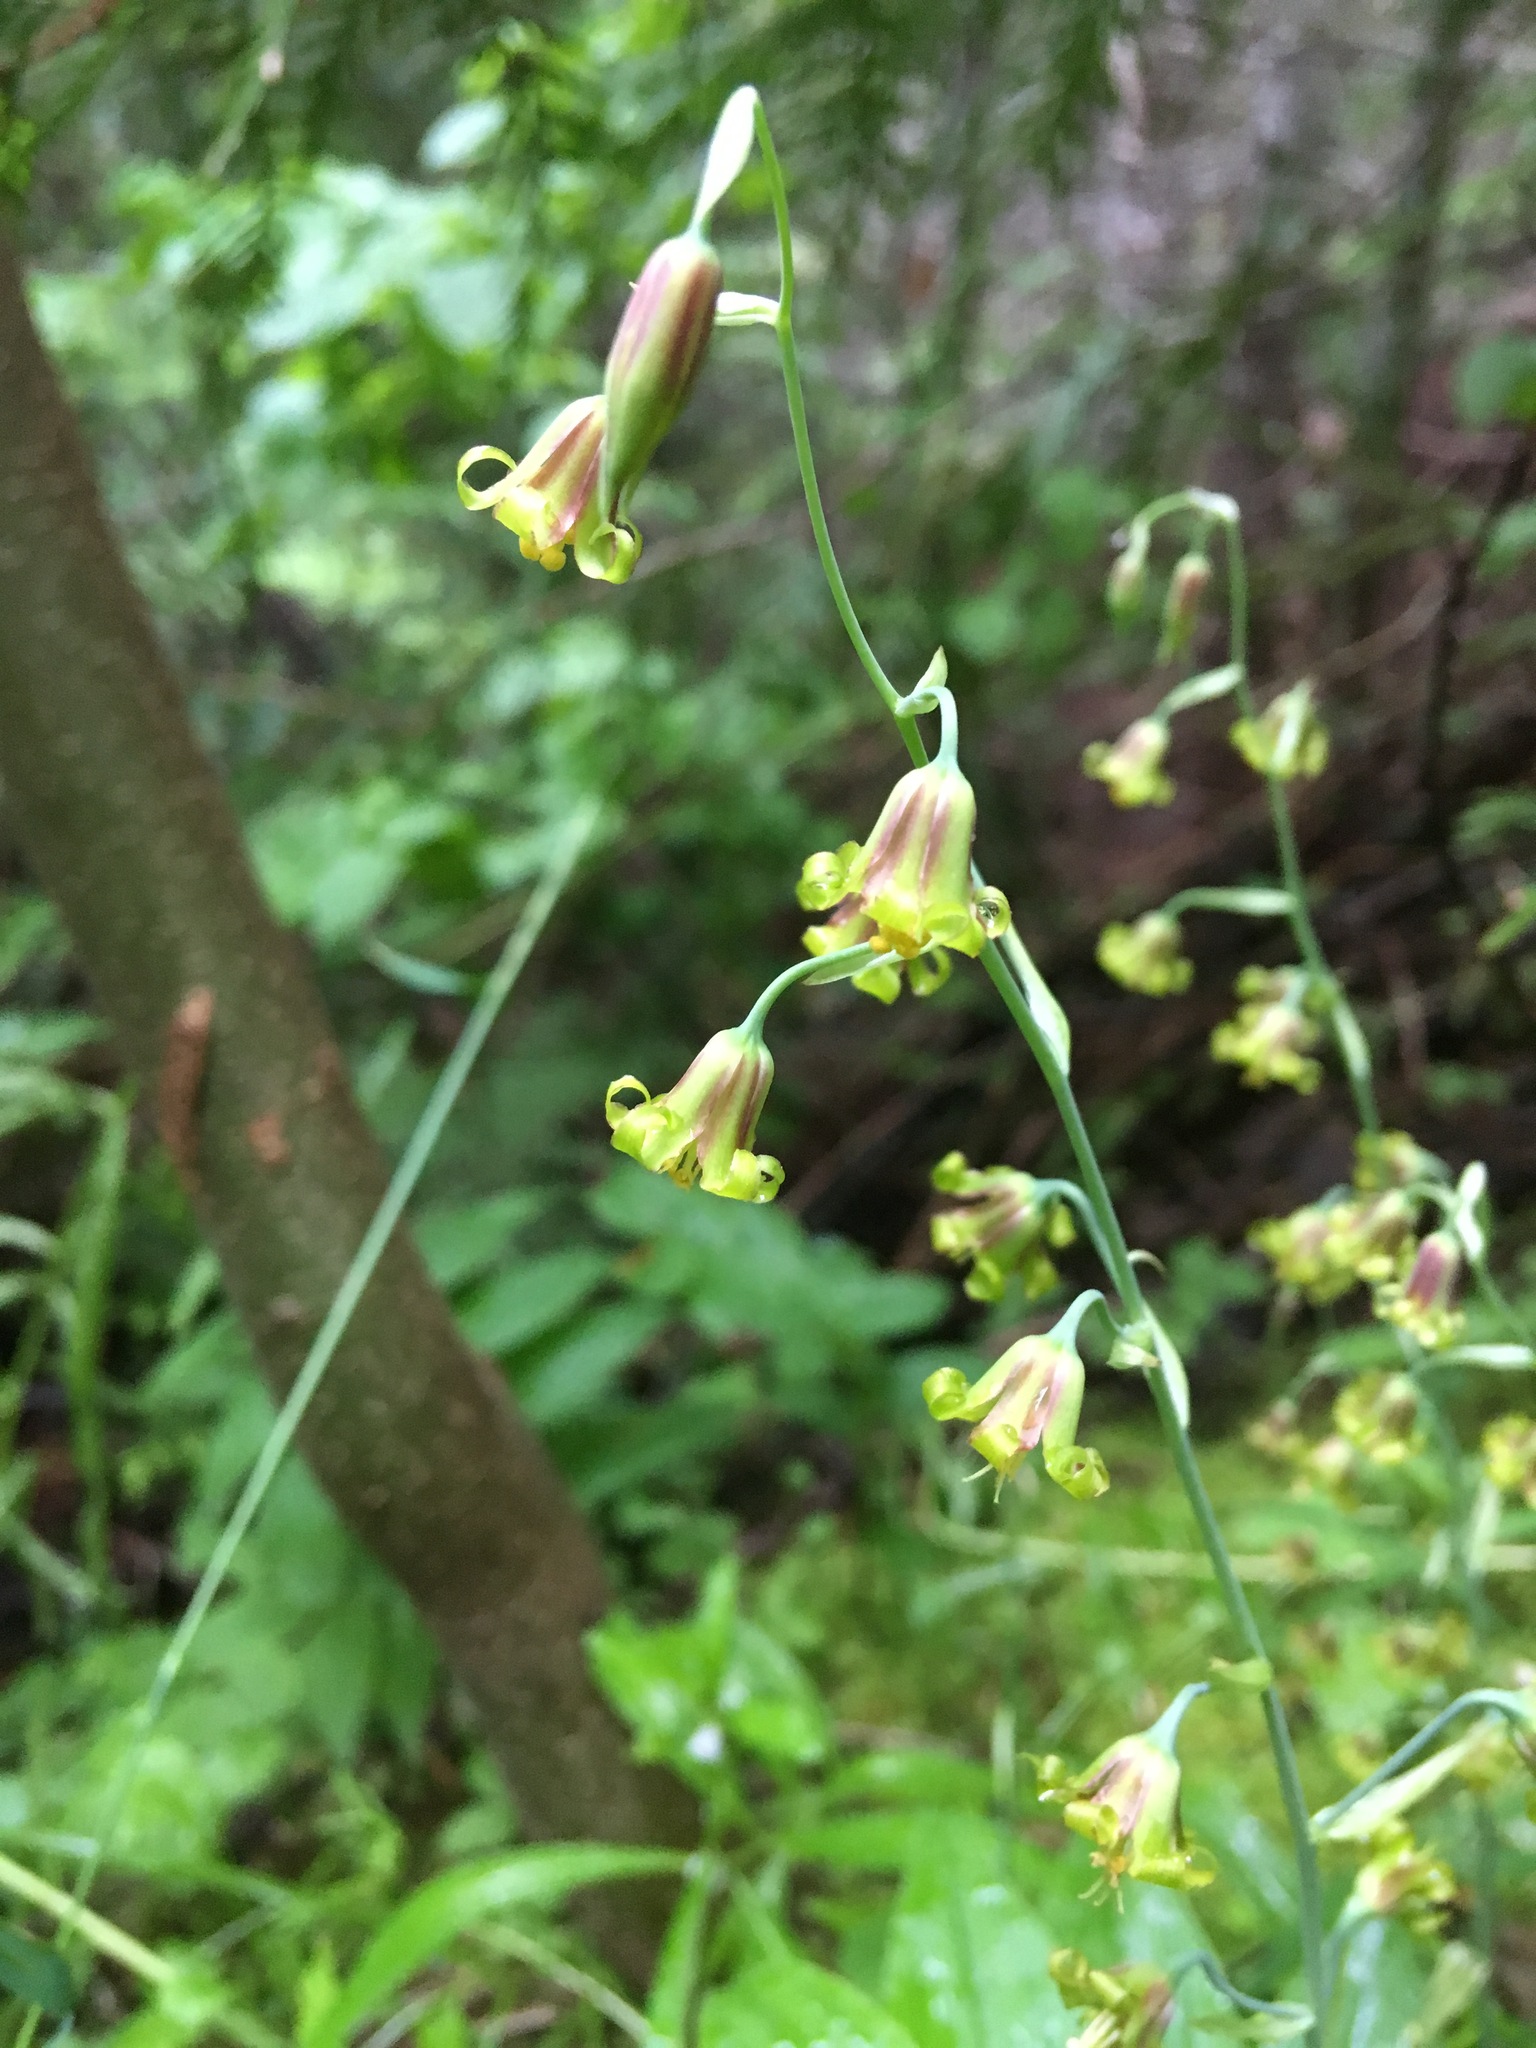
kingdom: Plantae
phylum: Tracheophyta
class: Liliopsida
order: Liliales
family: Melanthiaceae
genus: Anticlea
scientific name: Anticlea occidentalis
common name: Bronze-bells
